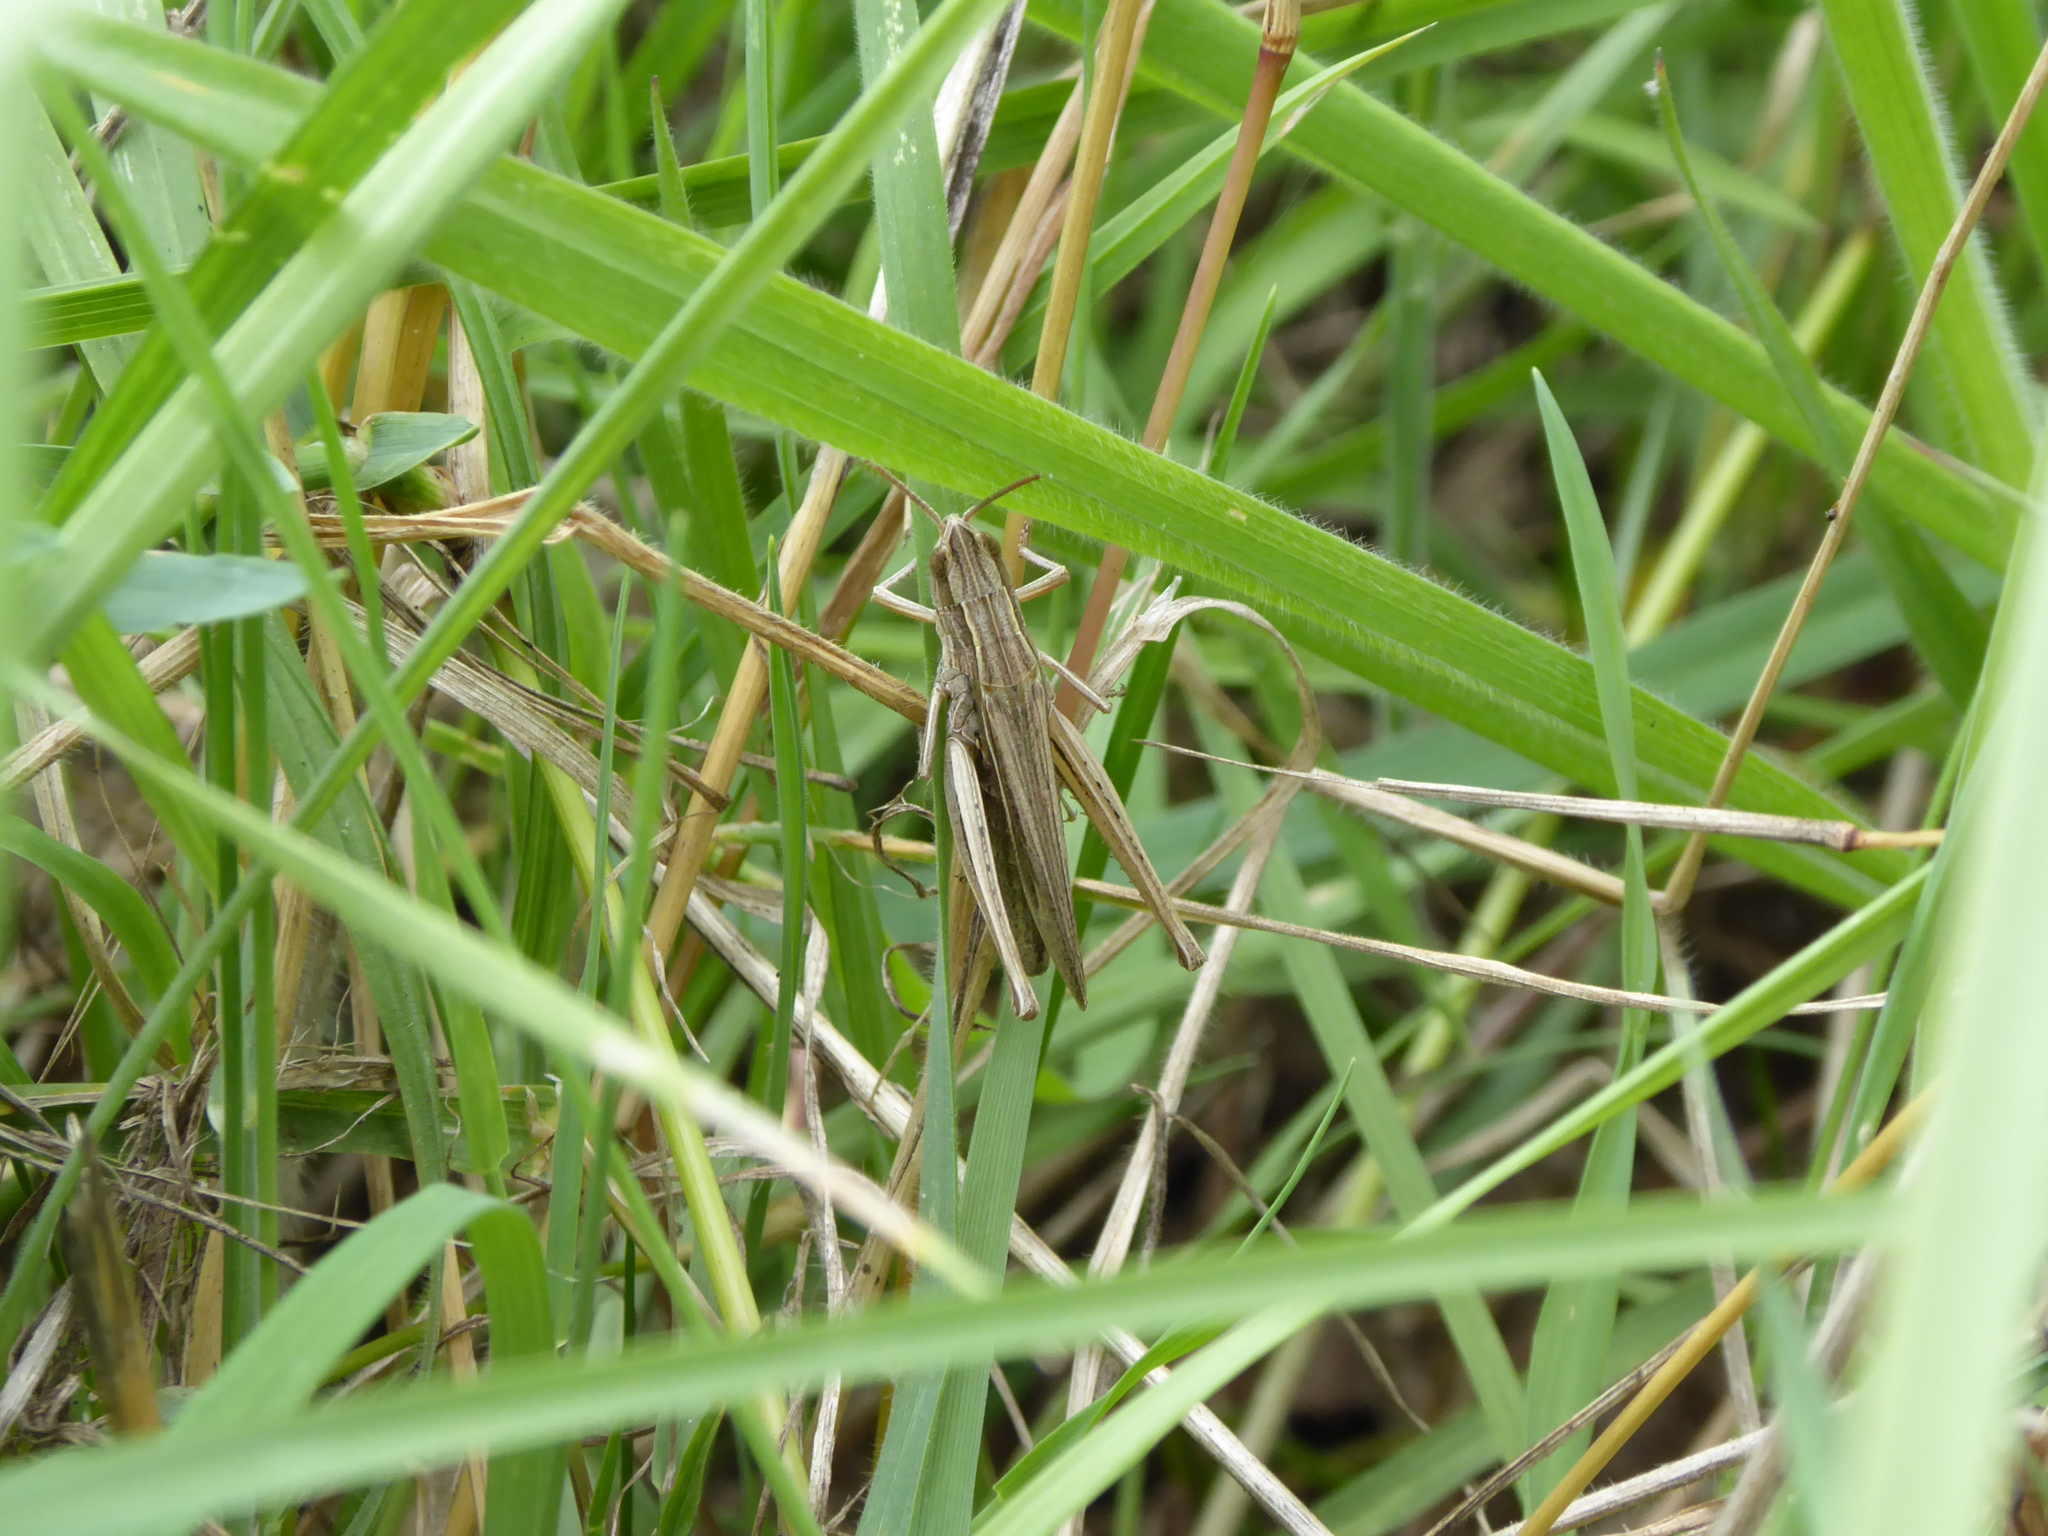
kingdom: Animalia
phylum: Arthropoda
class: Insecta
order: Orthoptera
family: Acrididae
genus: Chorthippus
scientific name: Chorthippus albomarginatus
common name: Lesser marsh grasshopper
